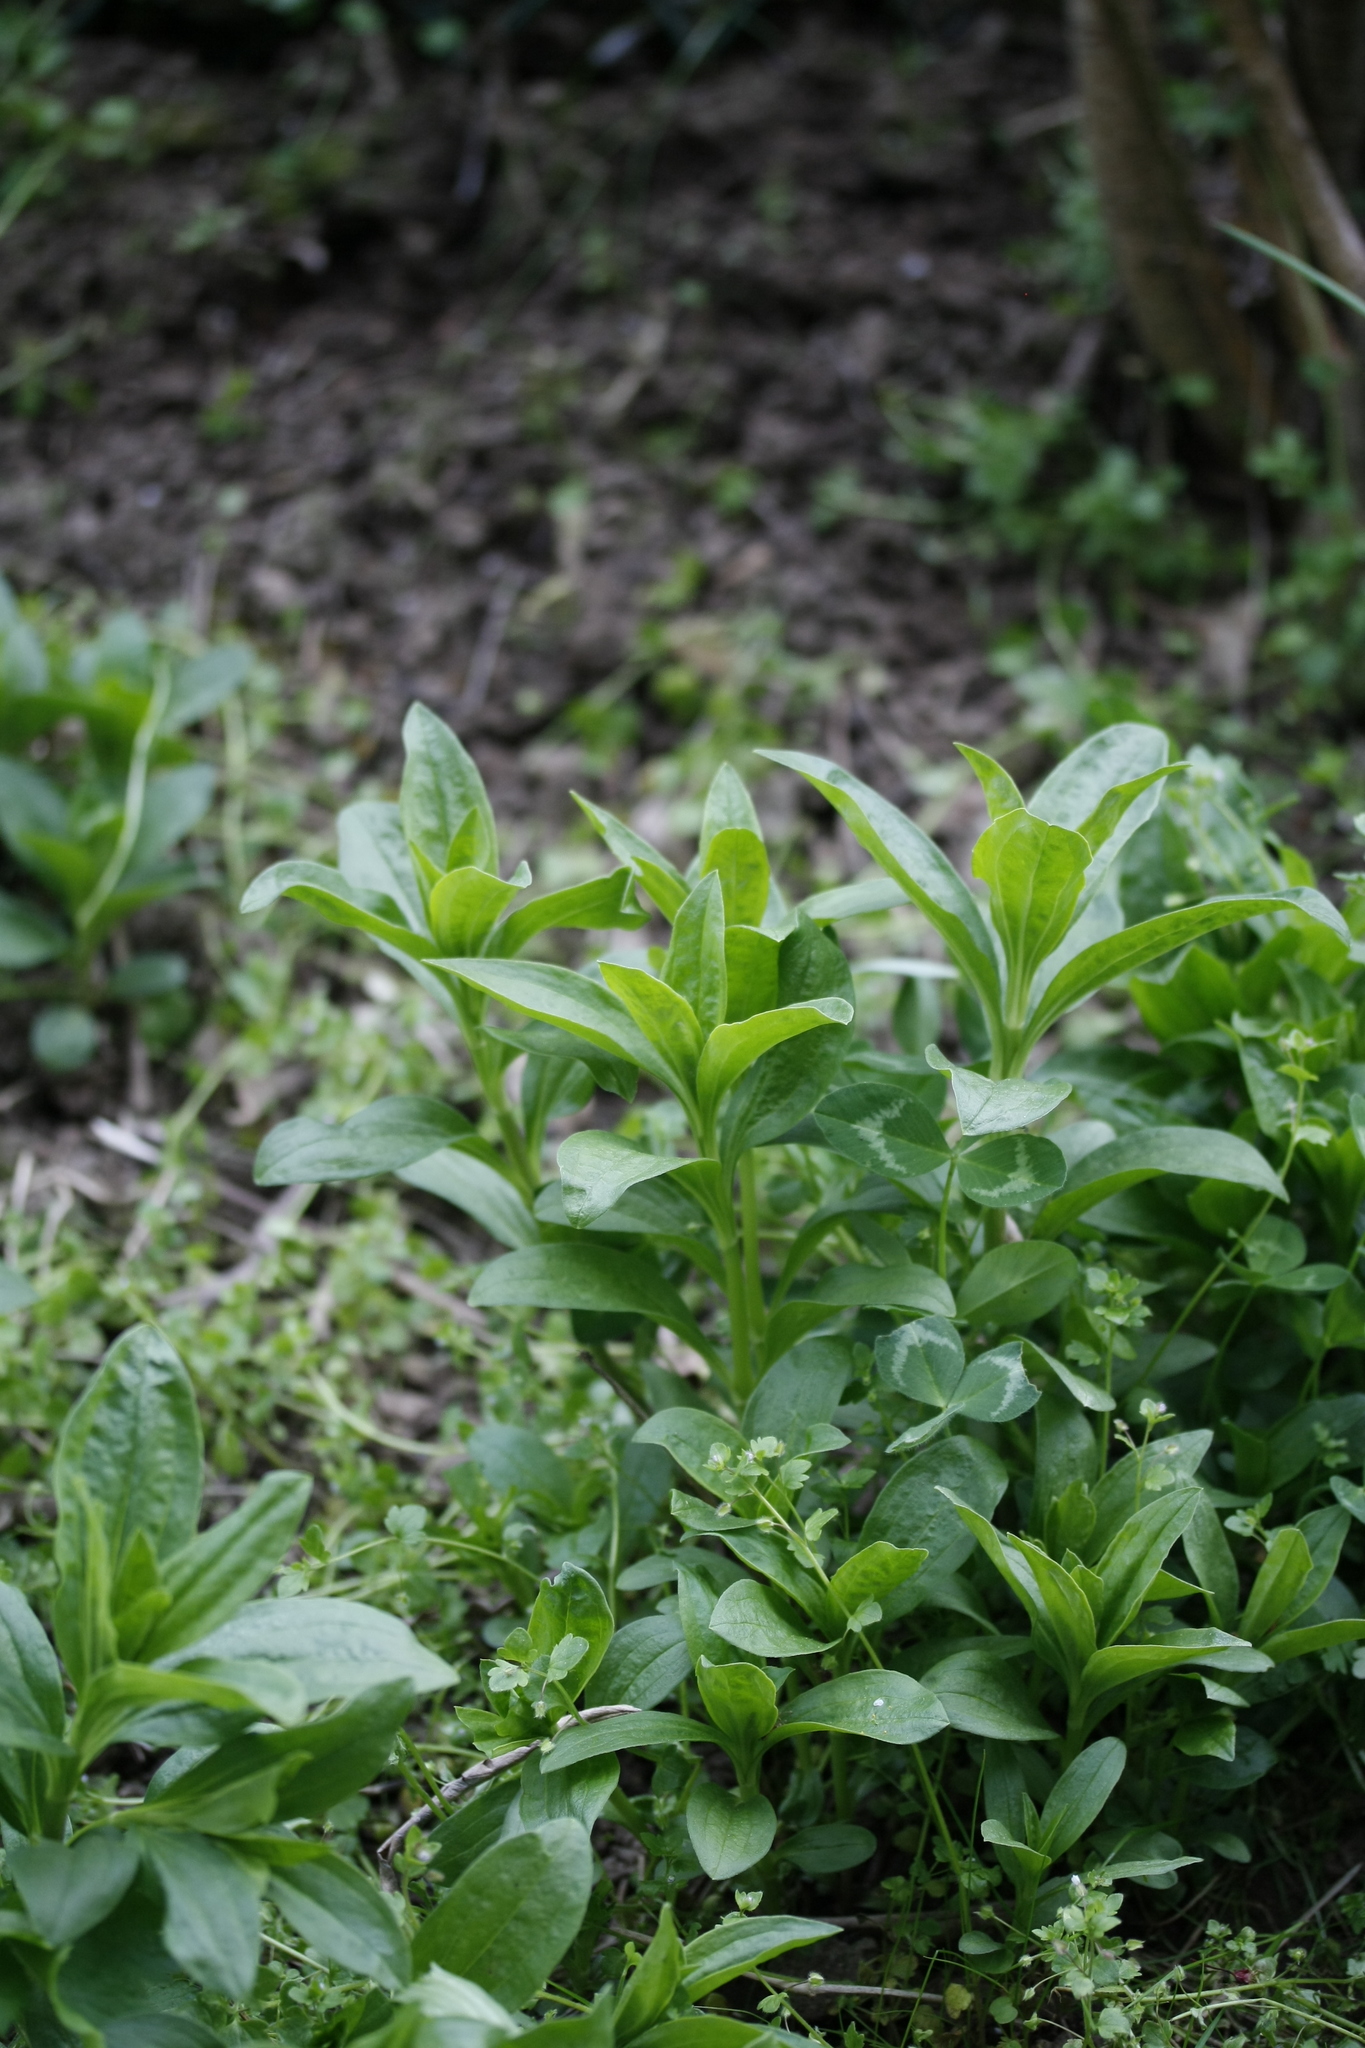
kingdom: Plantae
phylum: Tracheophyta
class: Magnoliopsida
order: Caryophyllales
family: Caryophyllaceae
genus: Saponaria
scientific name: Saponaria officinalis
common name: Soapwort
